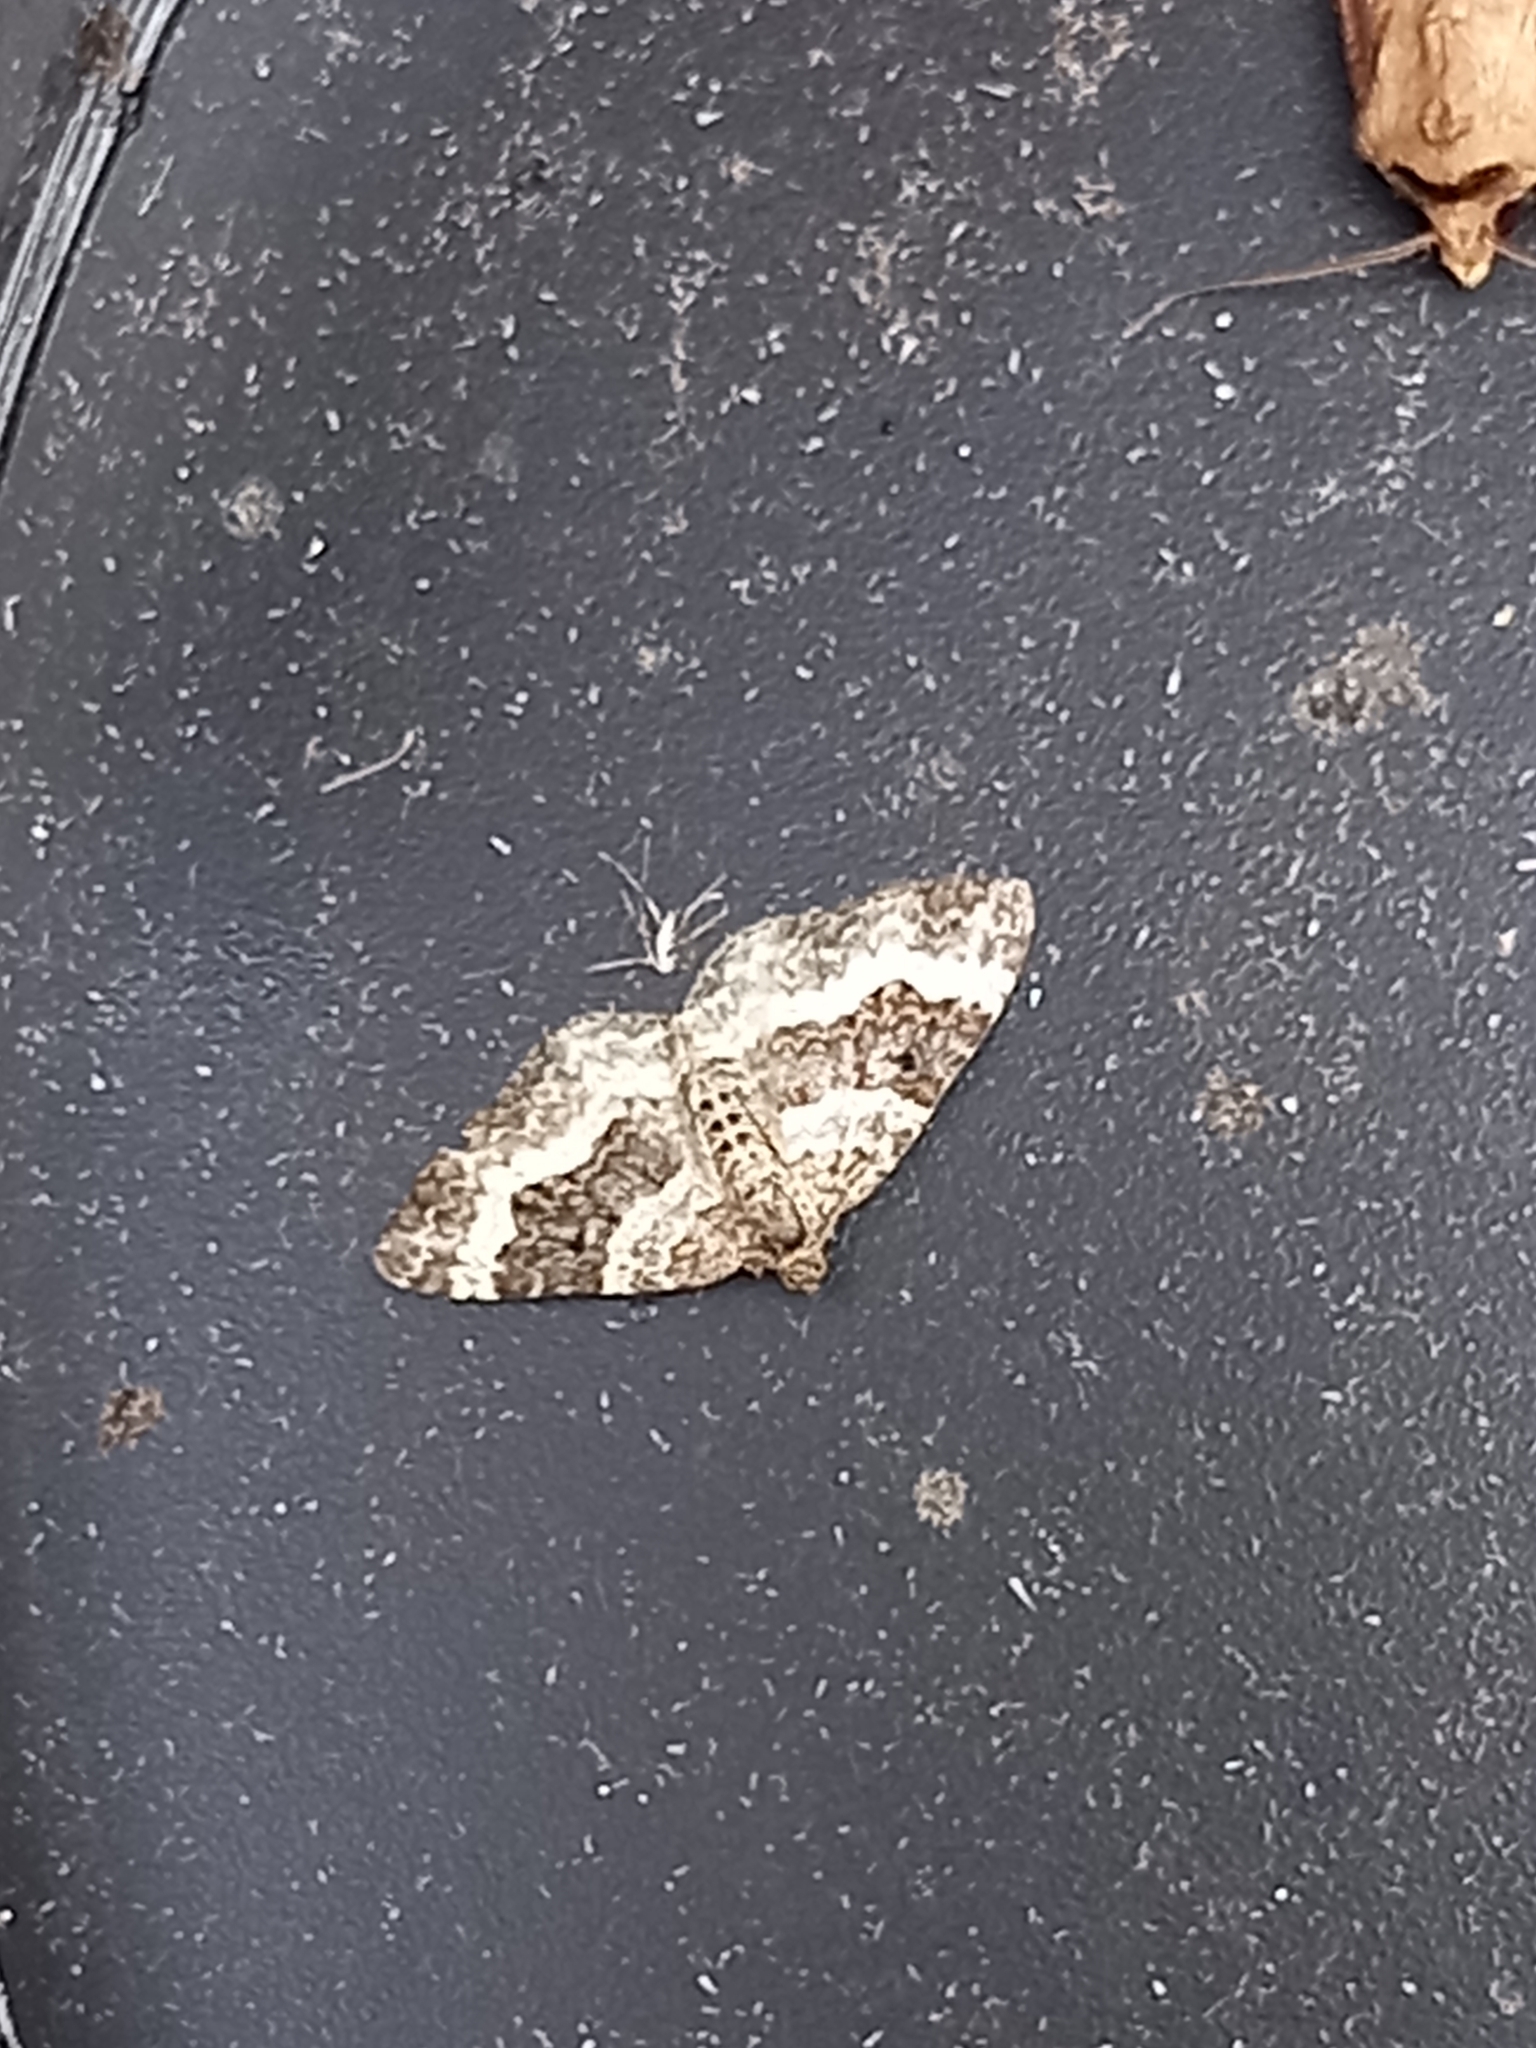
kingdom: Animalia
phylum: Arthropoda
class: Insecta
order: Lepidoptera
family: Geometridae
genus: Epirrhoe
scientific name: Epirrhoe alternata
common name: Common carpet
